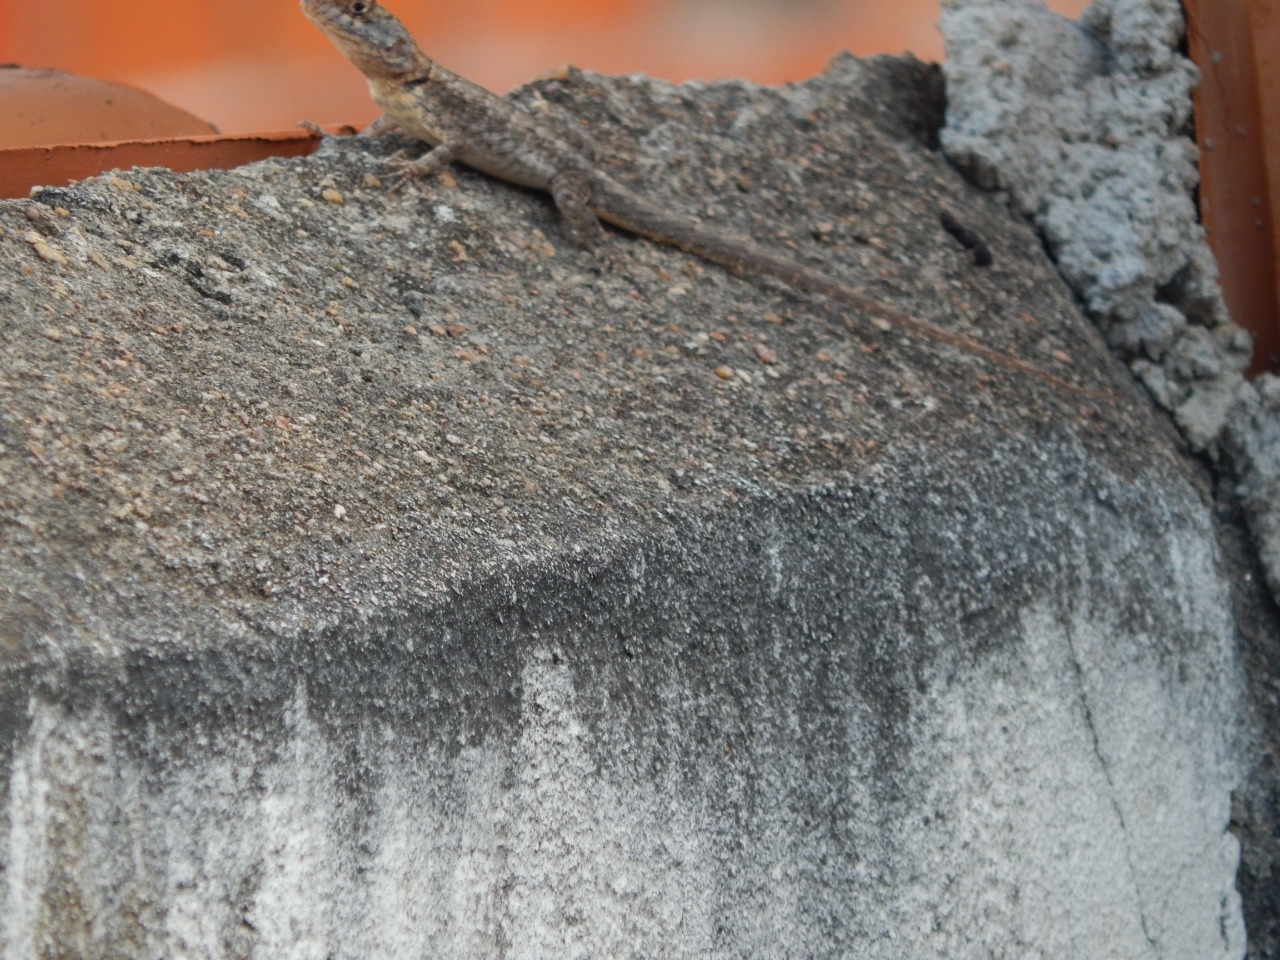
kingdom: Animalia
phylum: Chordata
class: Squamata
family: Tropiduridae
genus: Tropidurus
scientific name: Tropidurus hispidus
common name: Peters' lava lizard
